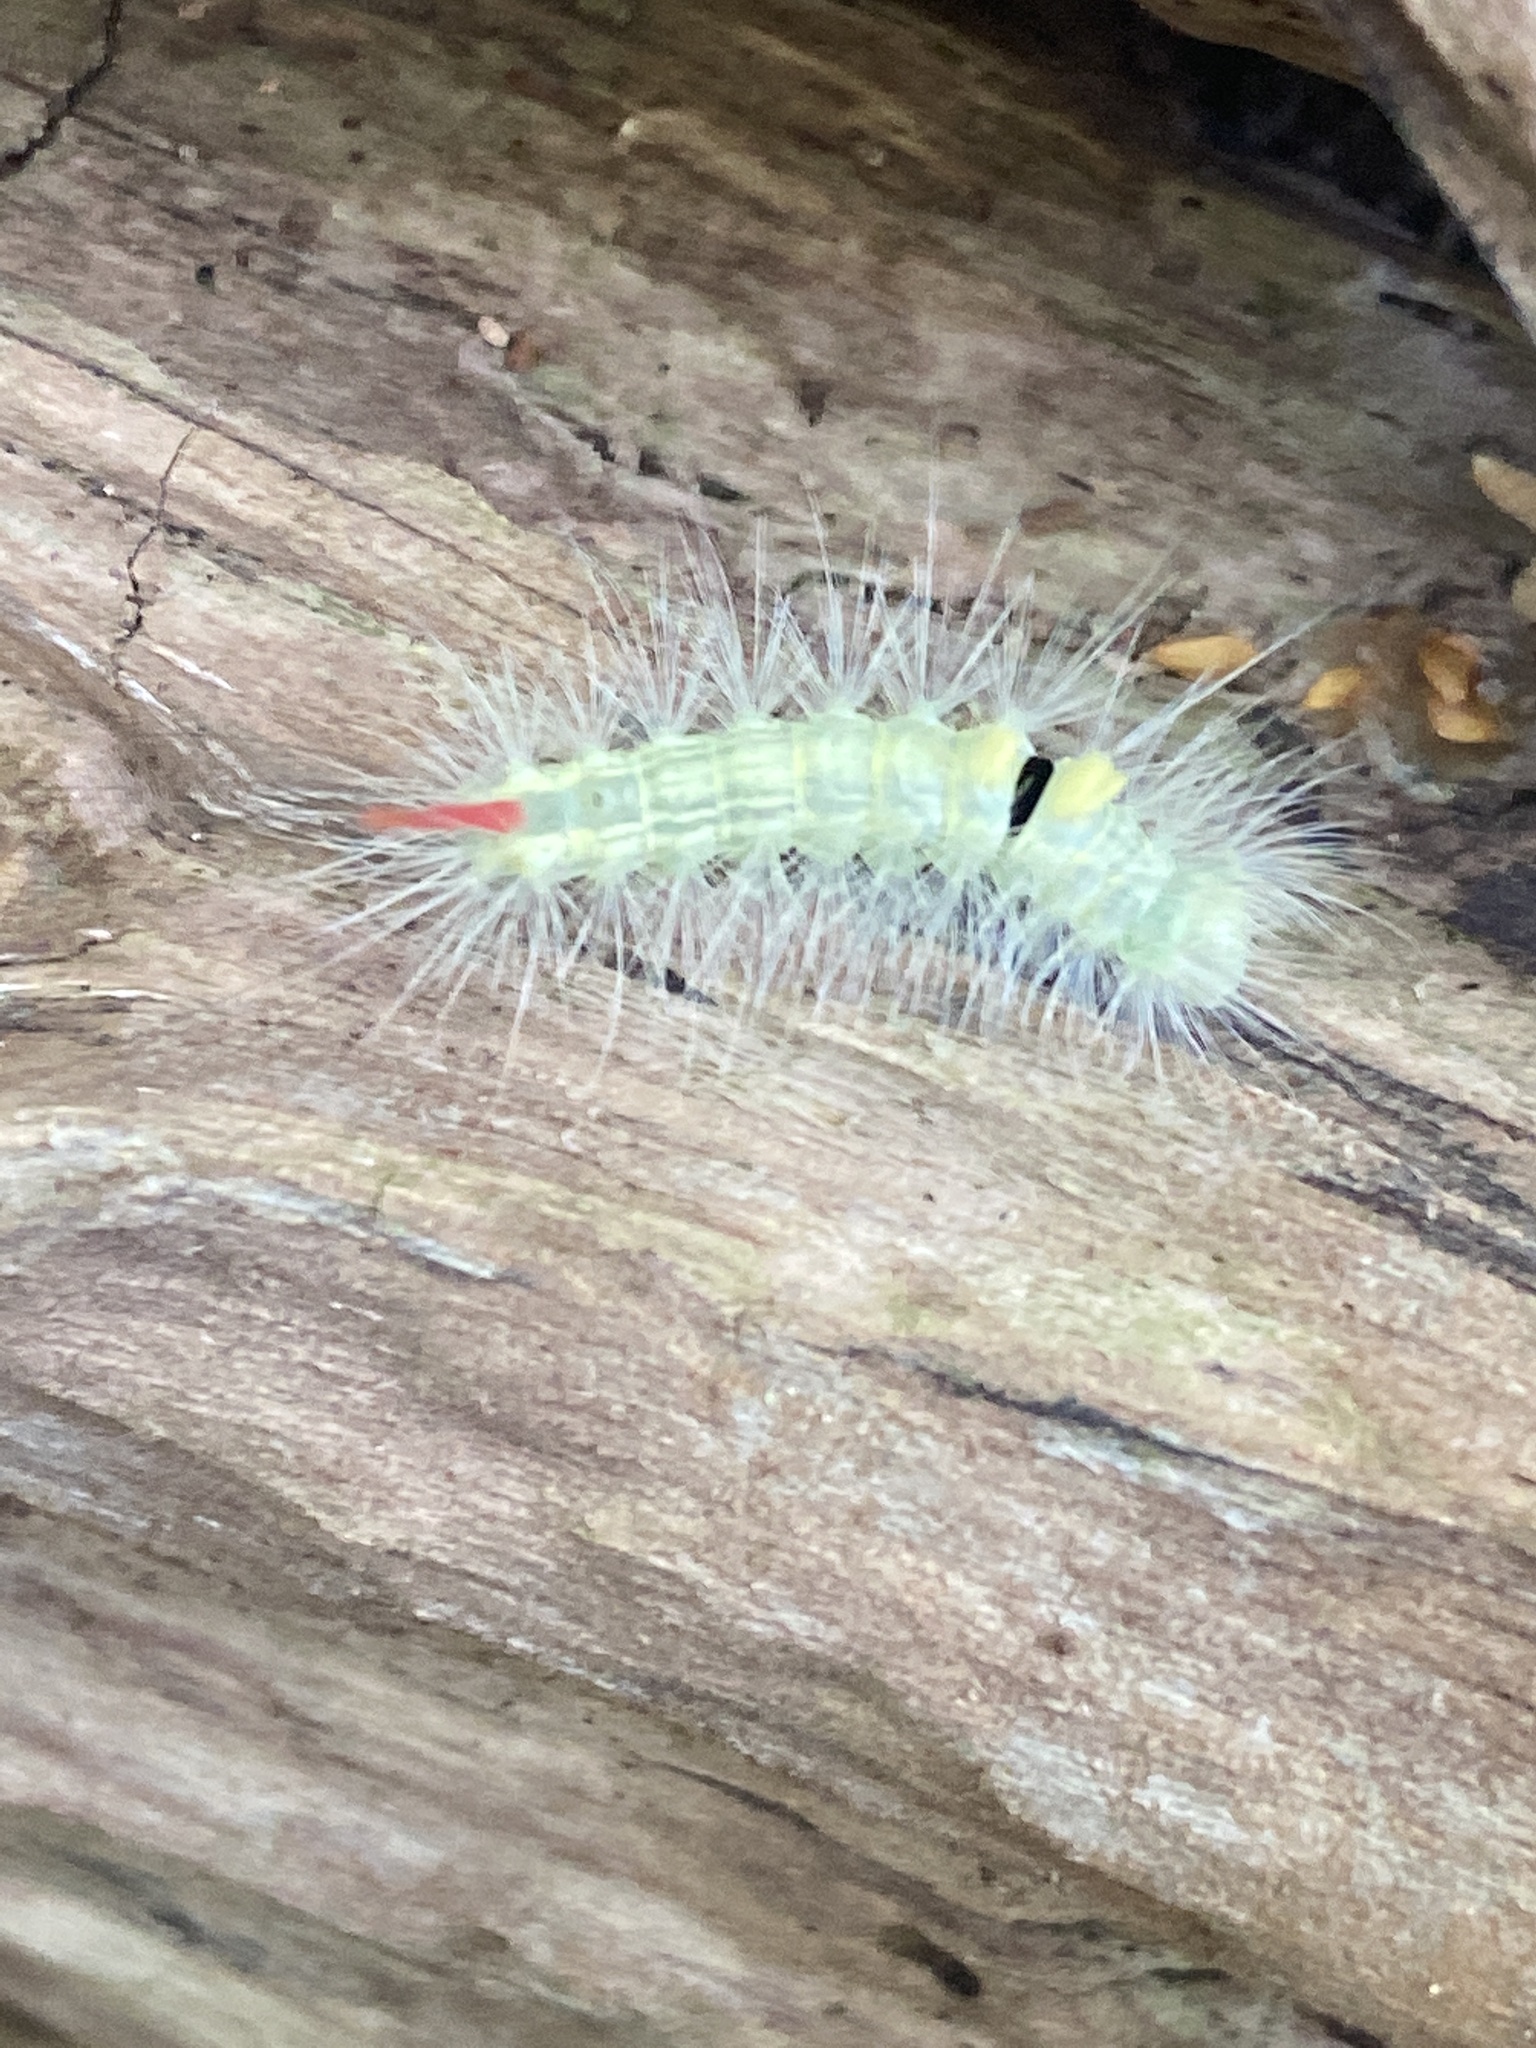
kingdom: Animalia
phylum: Arthropoda
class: Insecta
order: Lepidoptera
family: Erebidae
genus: Calliteara
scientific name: Calliteara pudibunda
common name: Pale tussock
